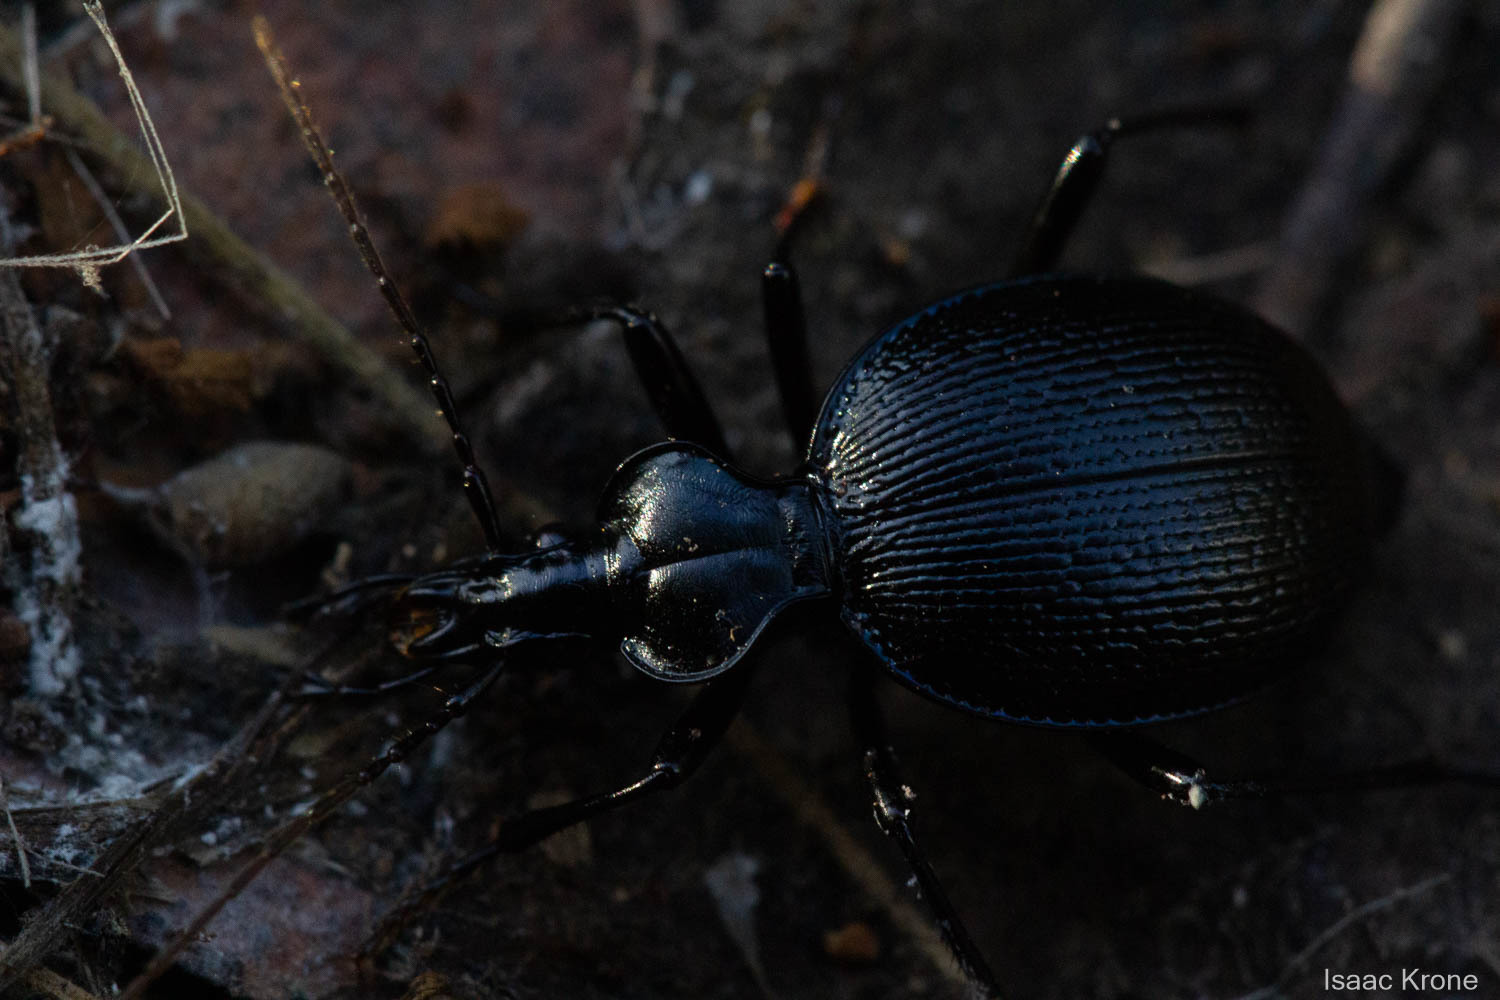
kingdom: Animalia
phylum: Arthropoda
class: Insecta
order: Coleoptera
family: Carabidae
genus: Scaphinotus
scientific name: Scaphinotus interruptus
